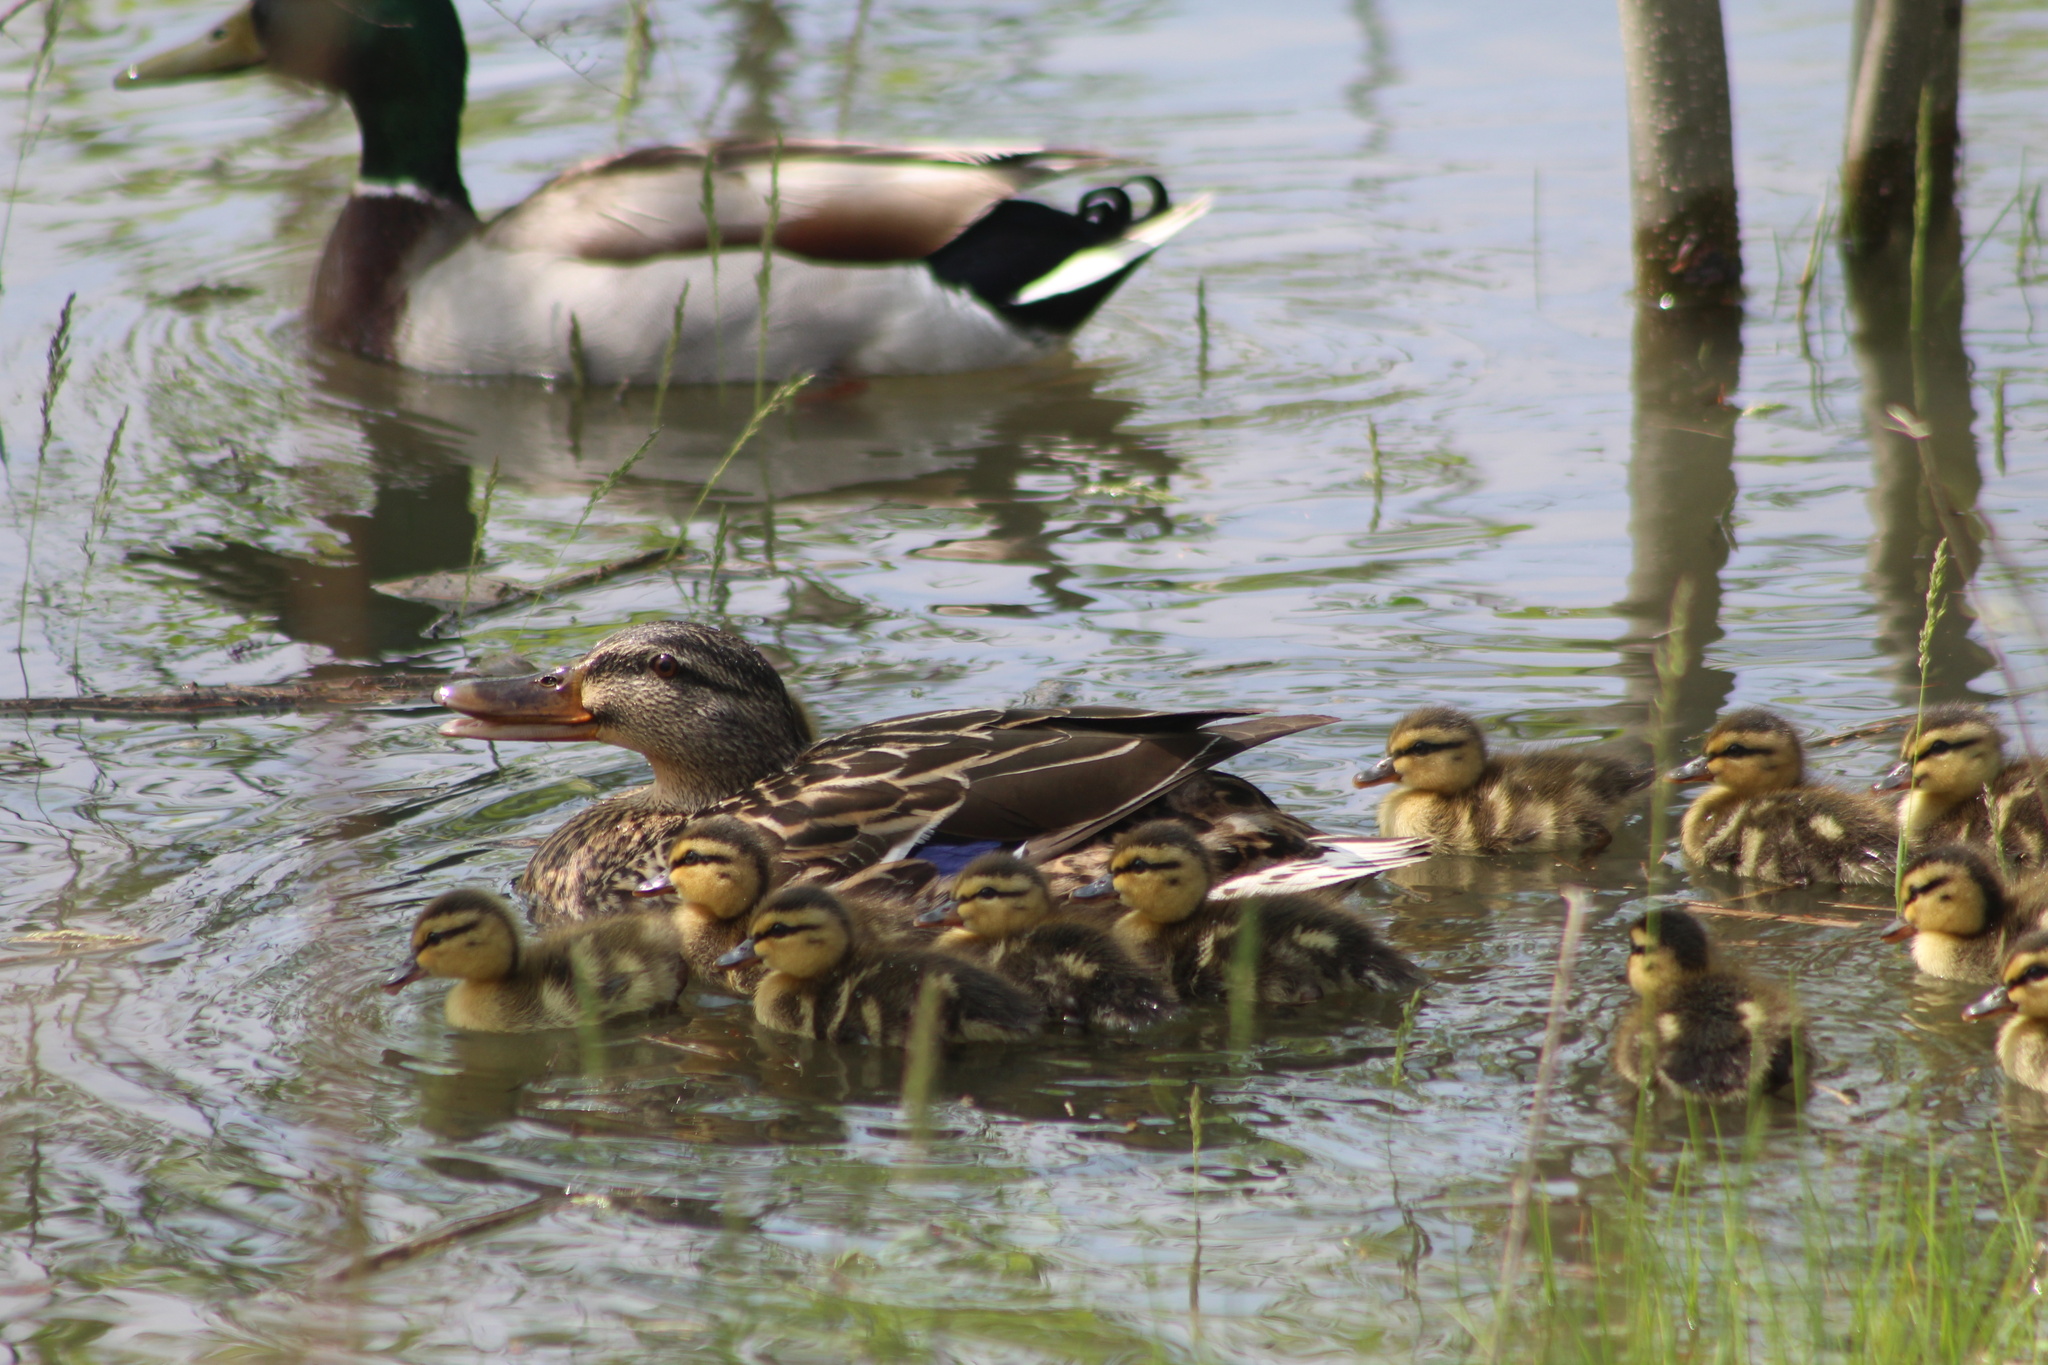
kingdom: Animalia
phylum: Chordata
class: Aves
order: Anseriformes
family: Anatidae
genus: Anas
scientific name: Anas platyrhynchos
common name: Mallard
